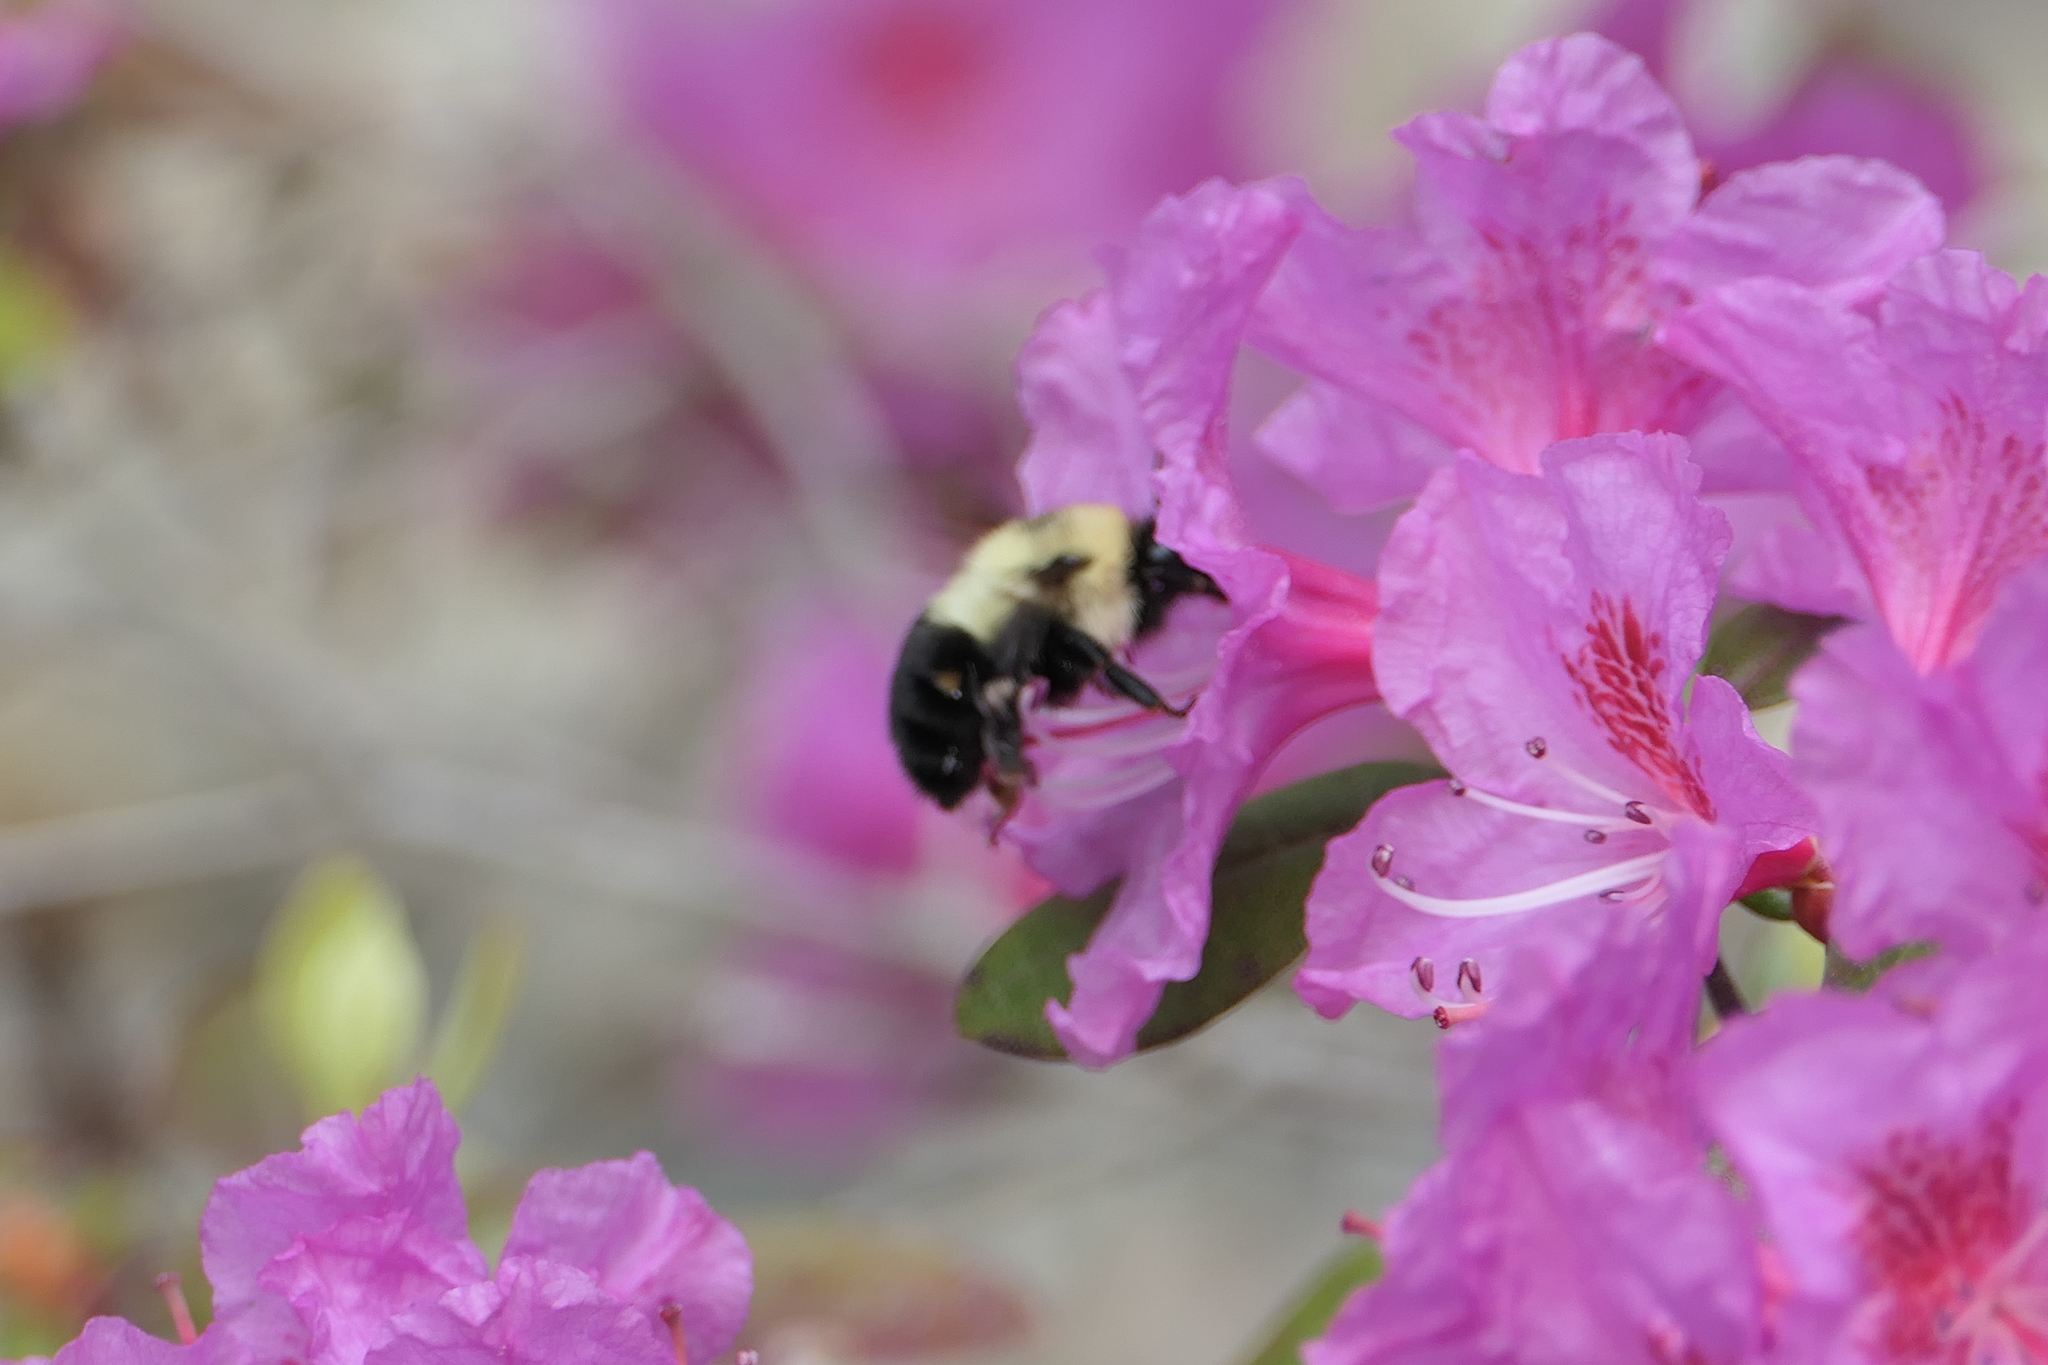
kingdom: Animalia
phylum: Arthropoda
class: Insecta
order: Hymenoptera
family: Apidae
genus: Bombus
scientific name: Bombus bimaculatus
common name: Two-spotted bumble bee
